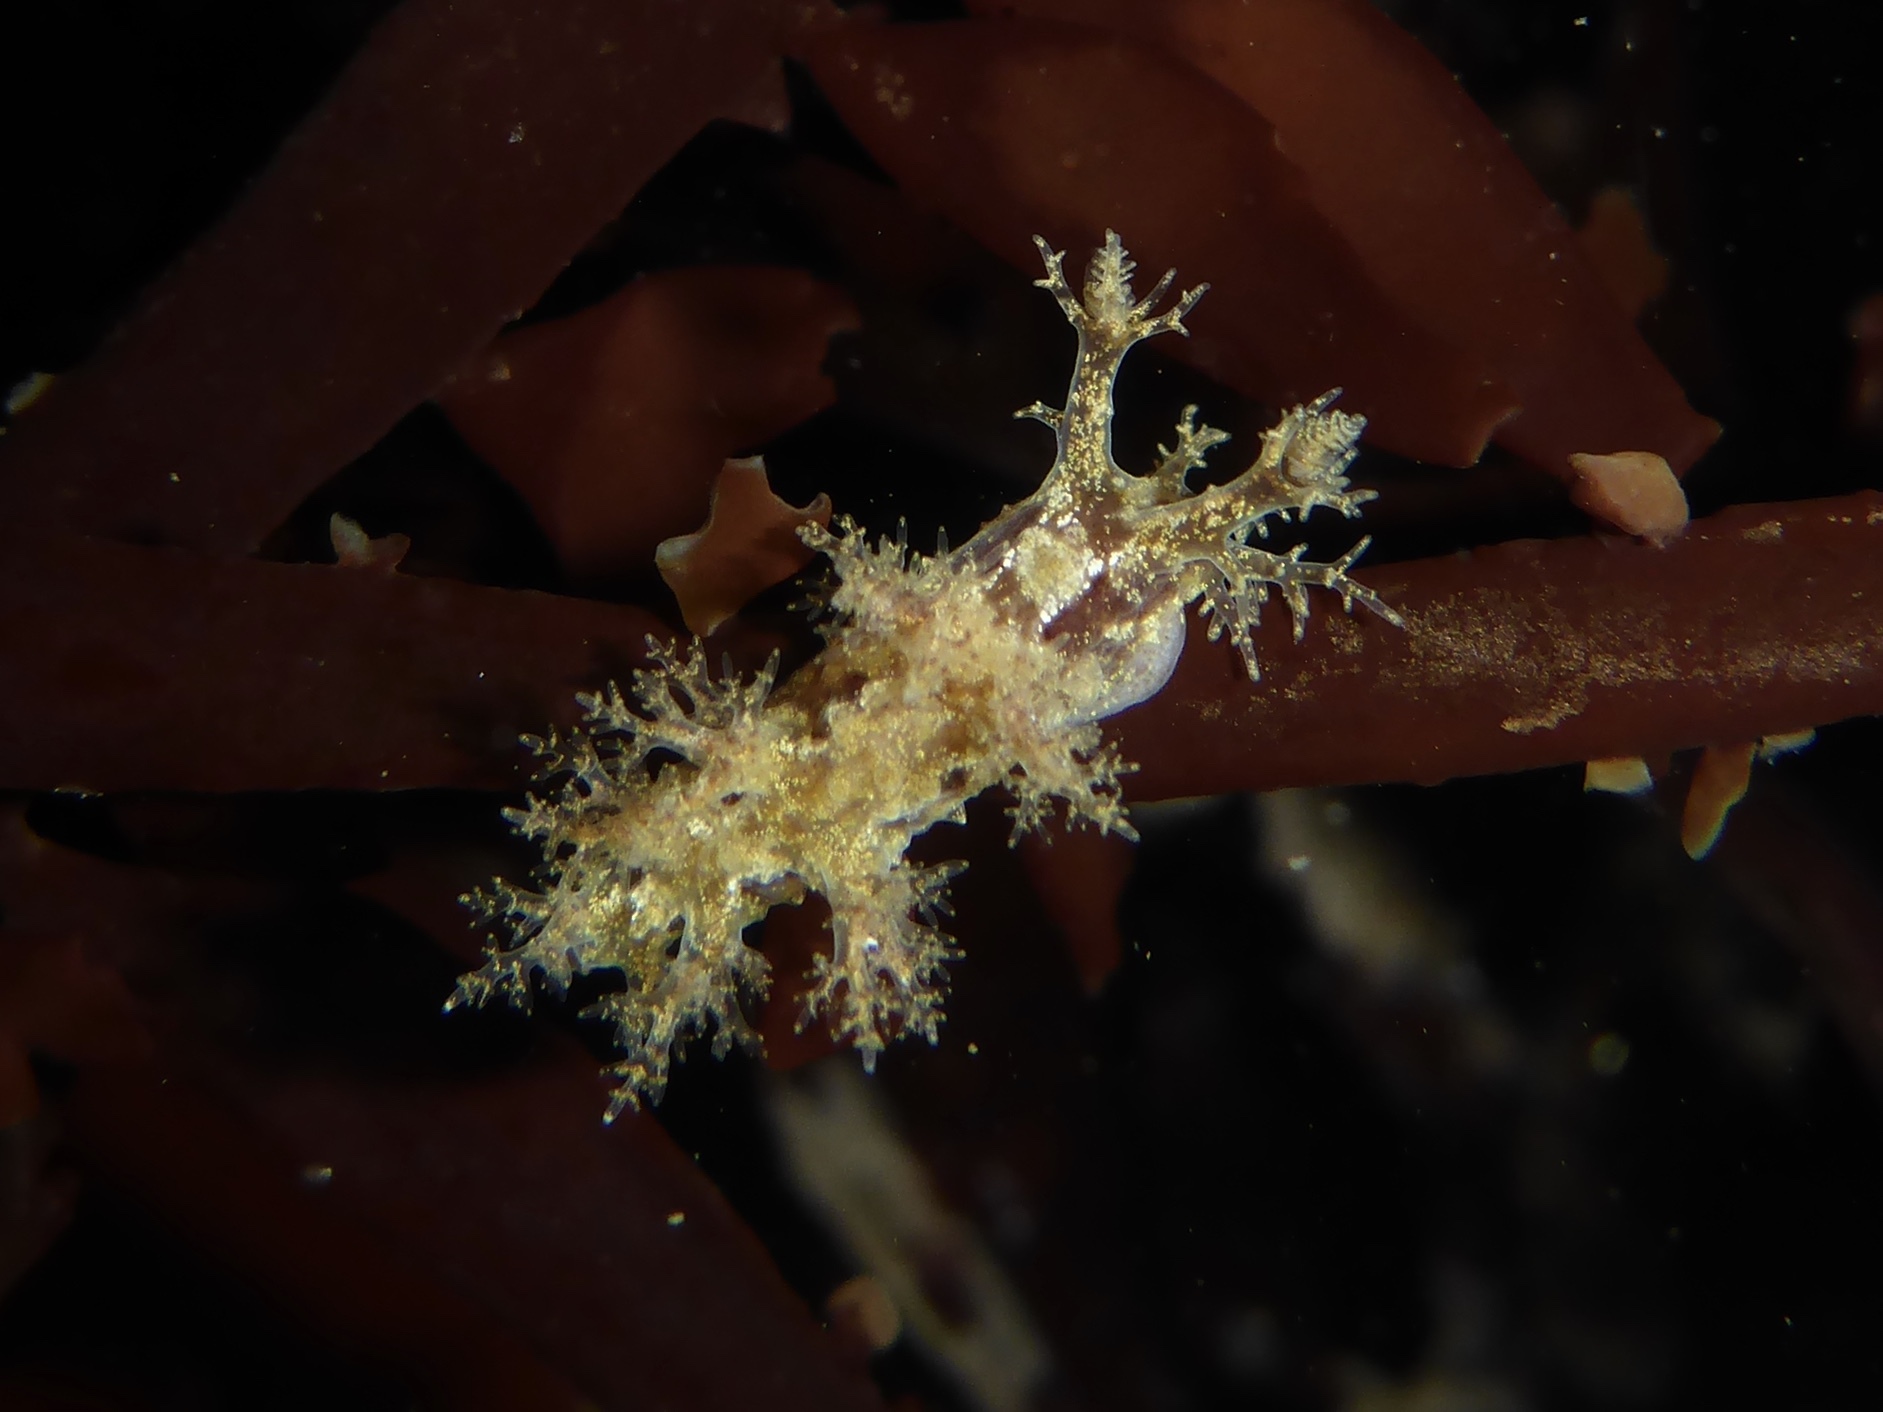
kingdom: Animalia
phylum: Mollusca
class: Gastropoda
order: Nudibranchia
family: Dendronotidae
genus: Dendronotus
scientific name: Dendronotus venustus
